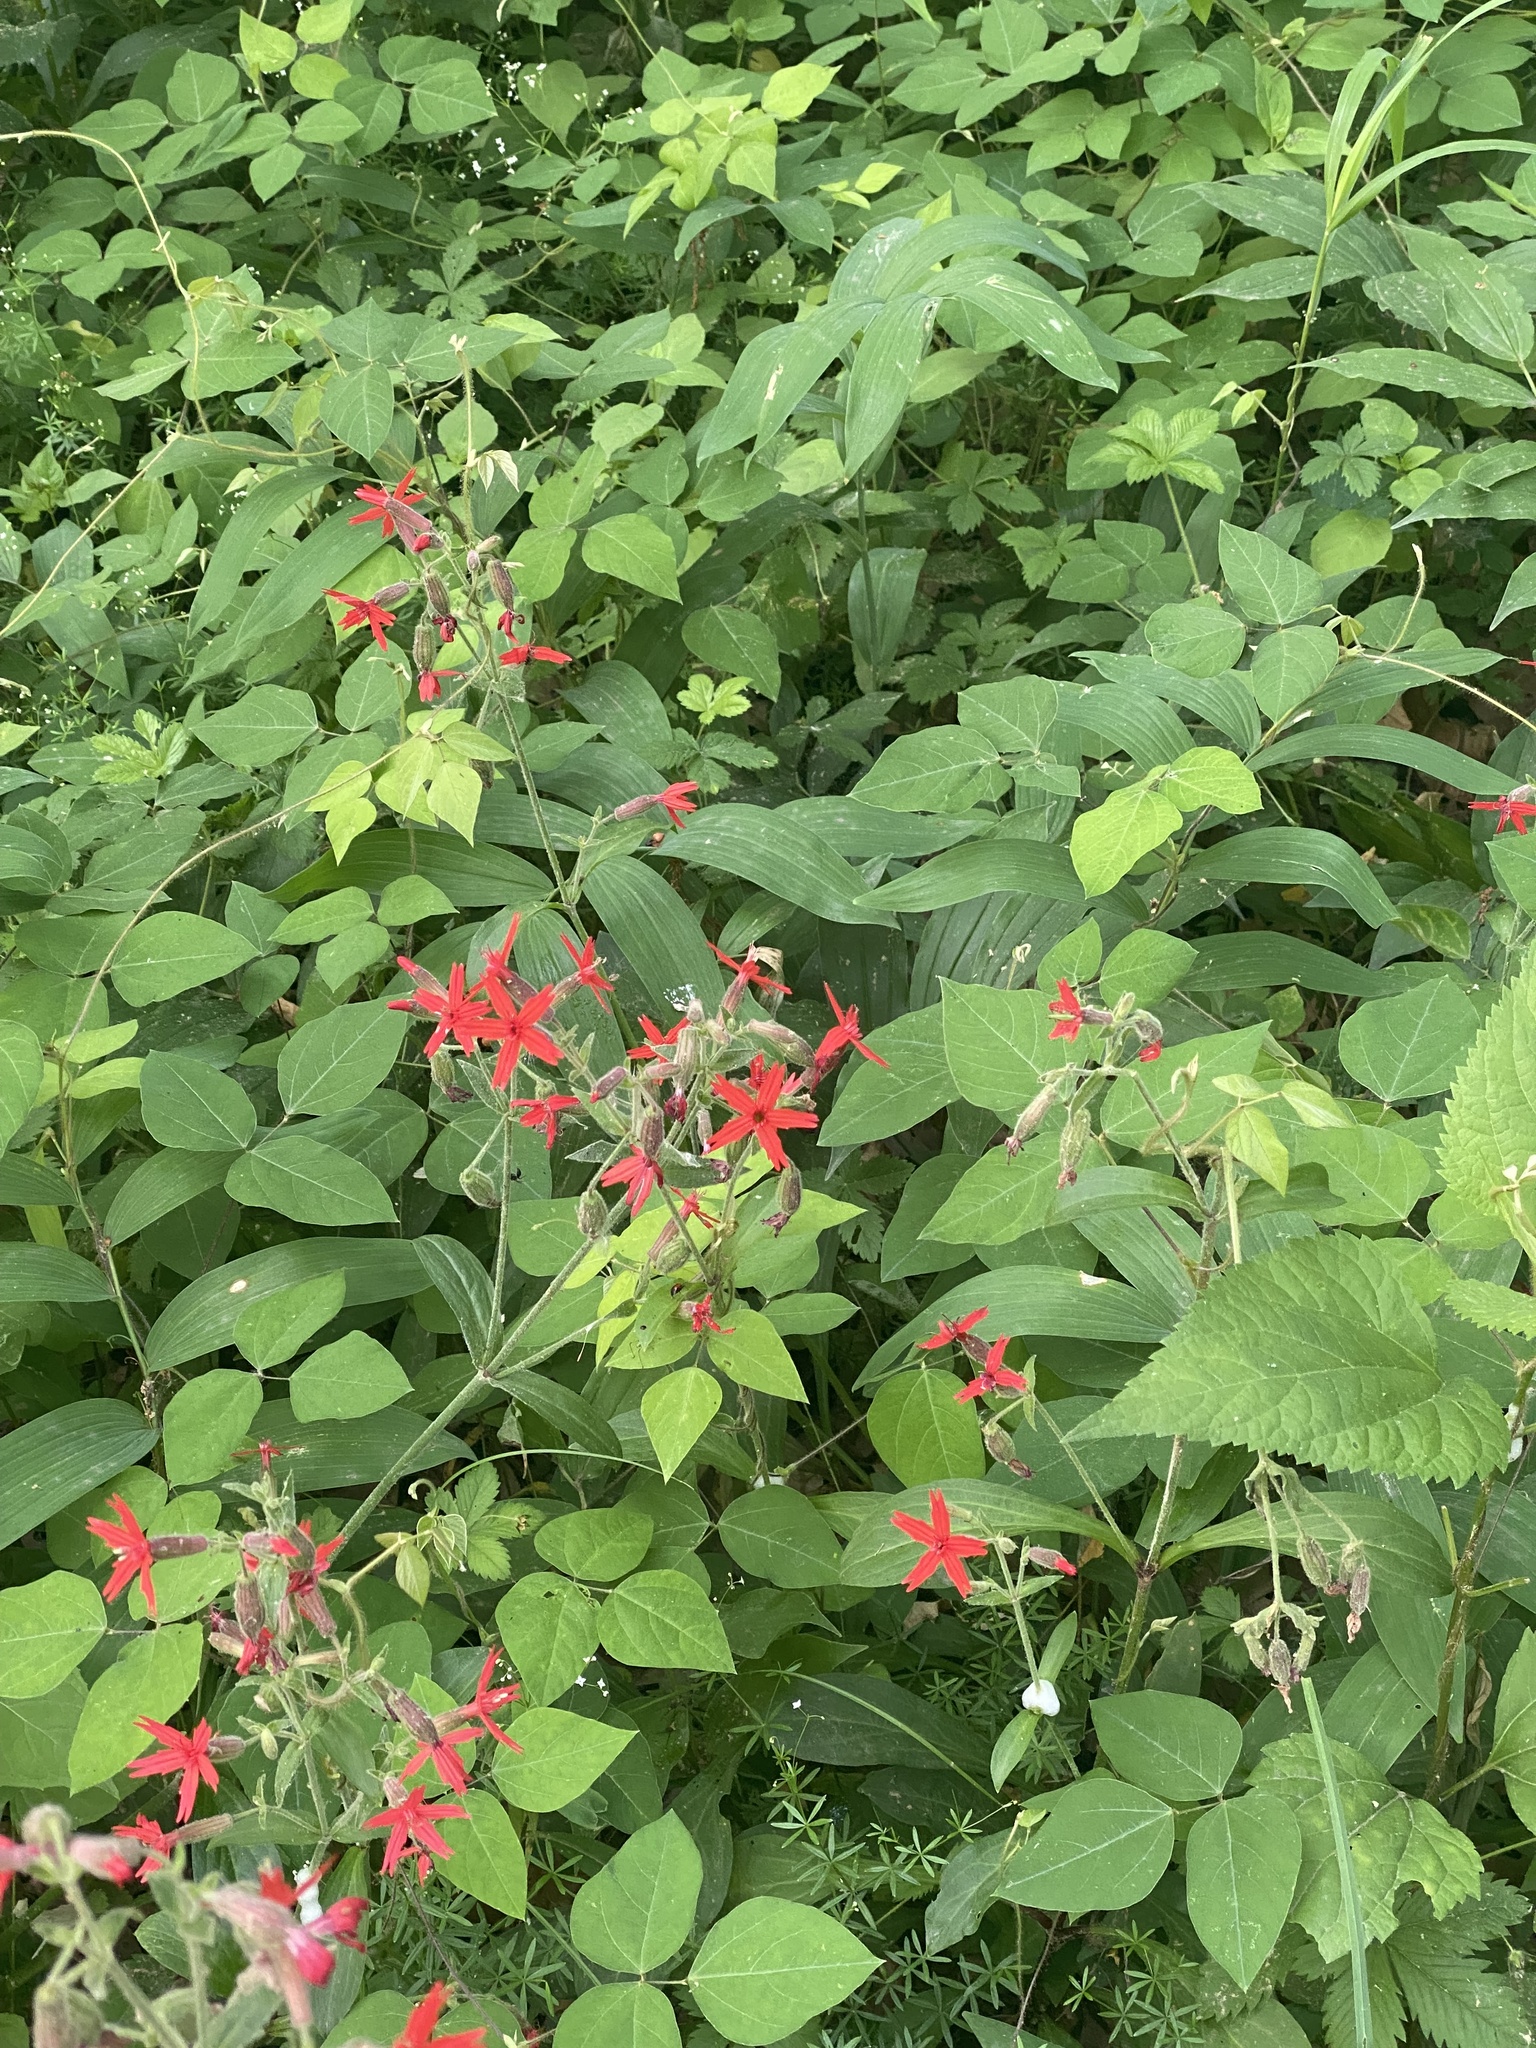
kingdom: Plantae
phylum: Tracheophyta
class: Magnoliopsida
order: Caryophyllales
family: Caryophyllaceae
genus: Silene
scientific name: Silene virginica
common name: Fire-pink
